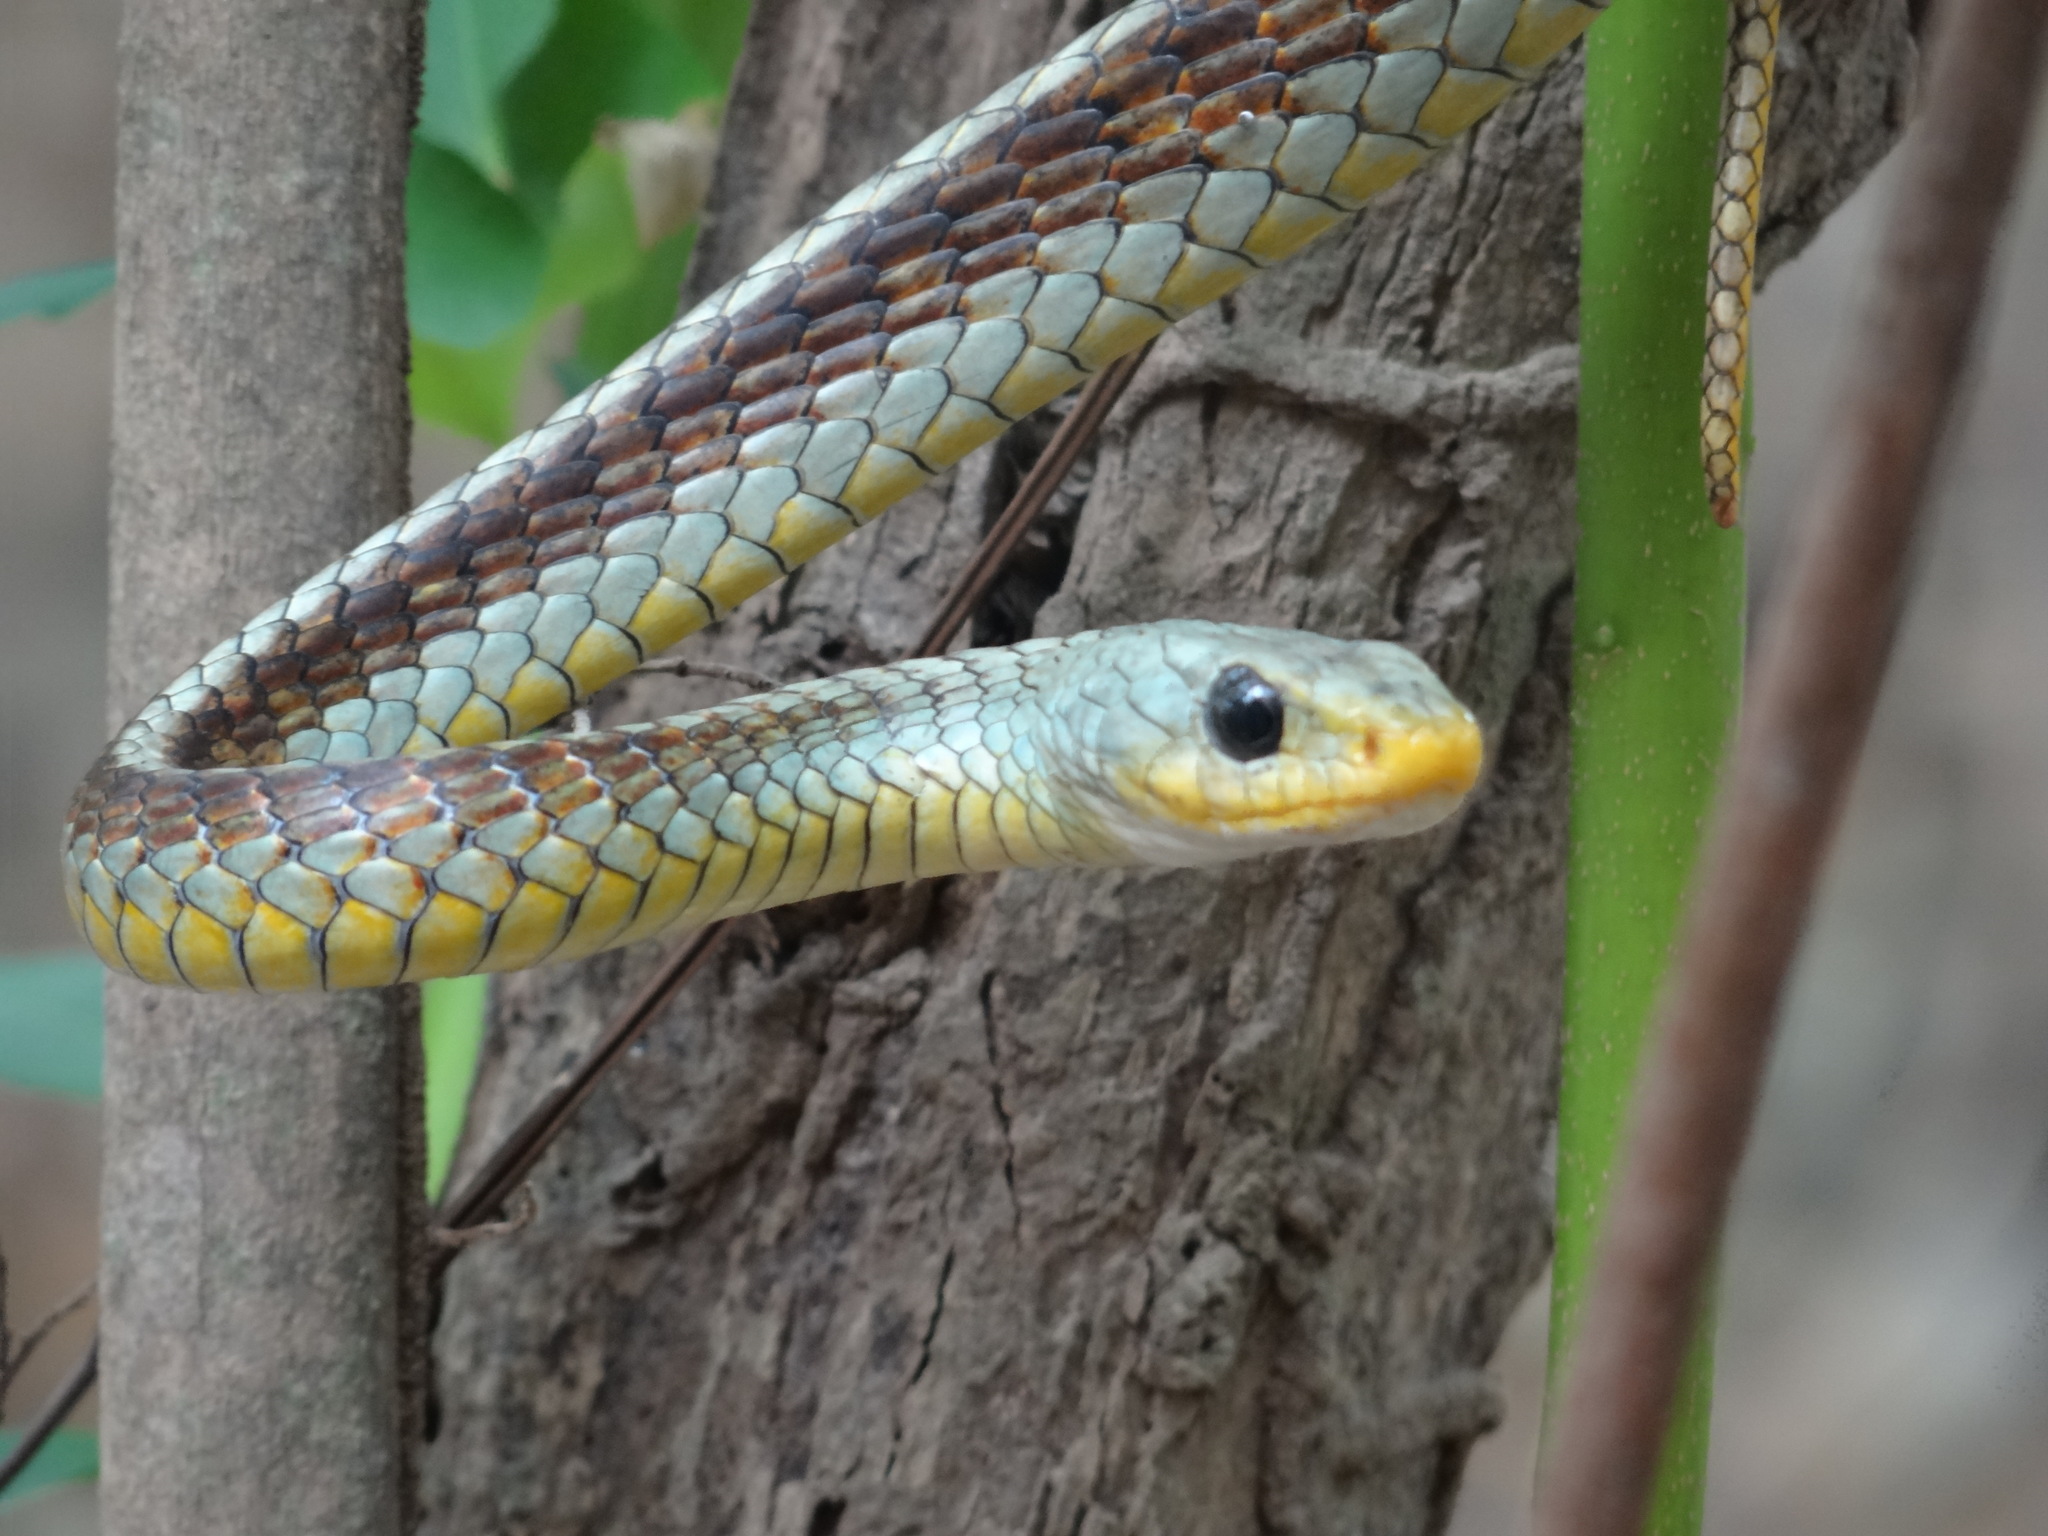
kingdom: Animalia
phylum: Chordata
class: Squamata
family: Colubridae
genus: Chironius
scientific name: Chironius spixii
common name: Sipo
